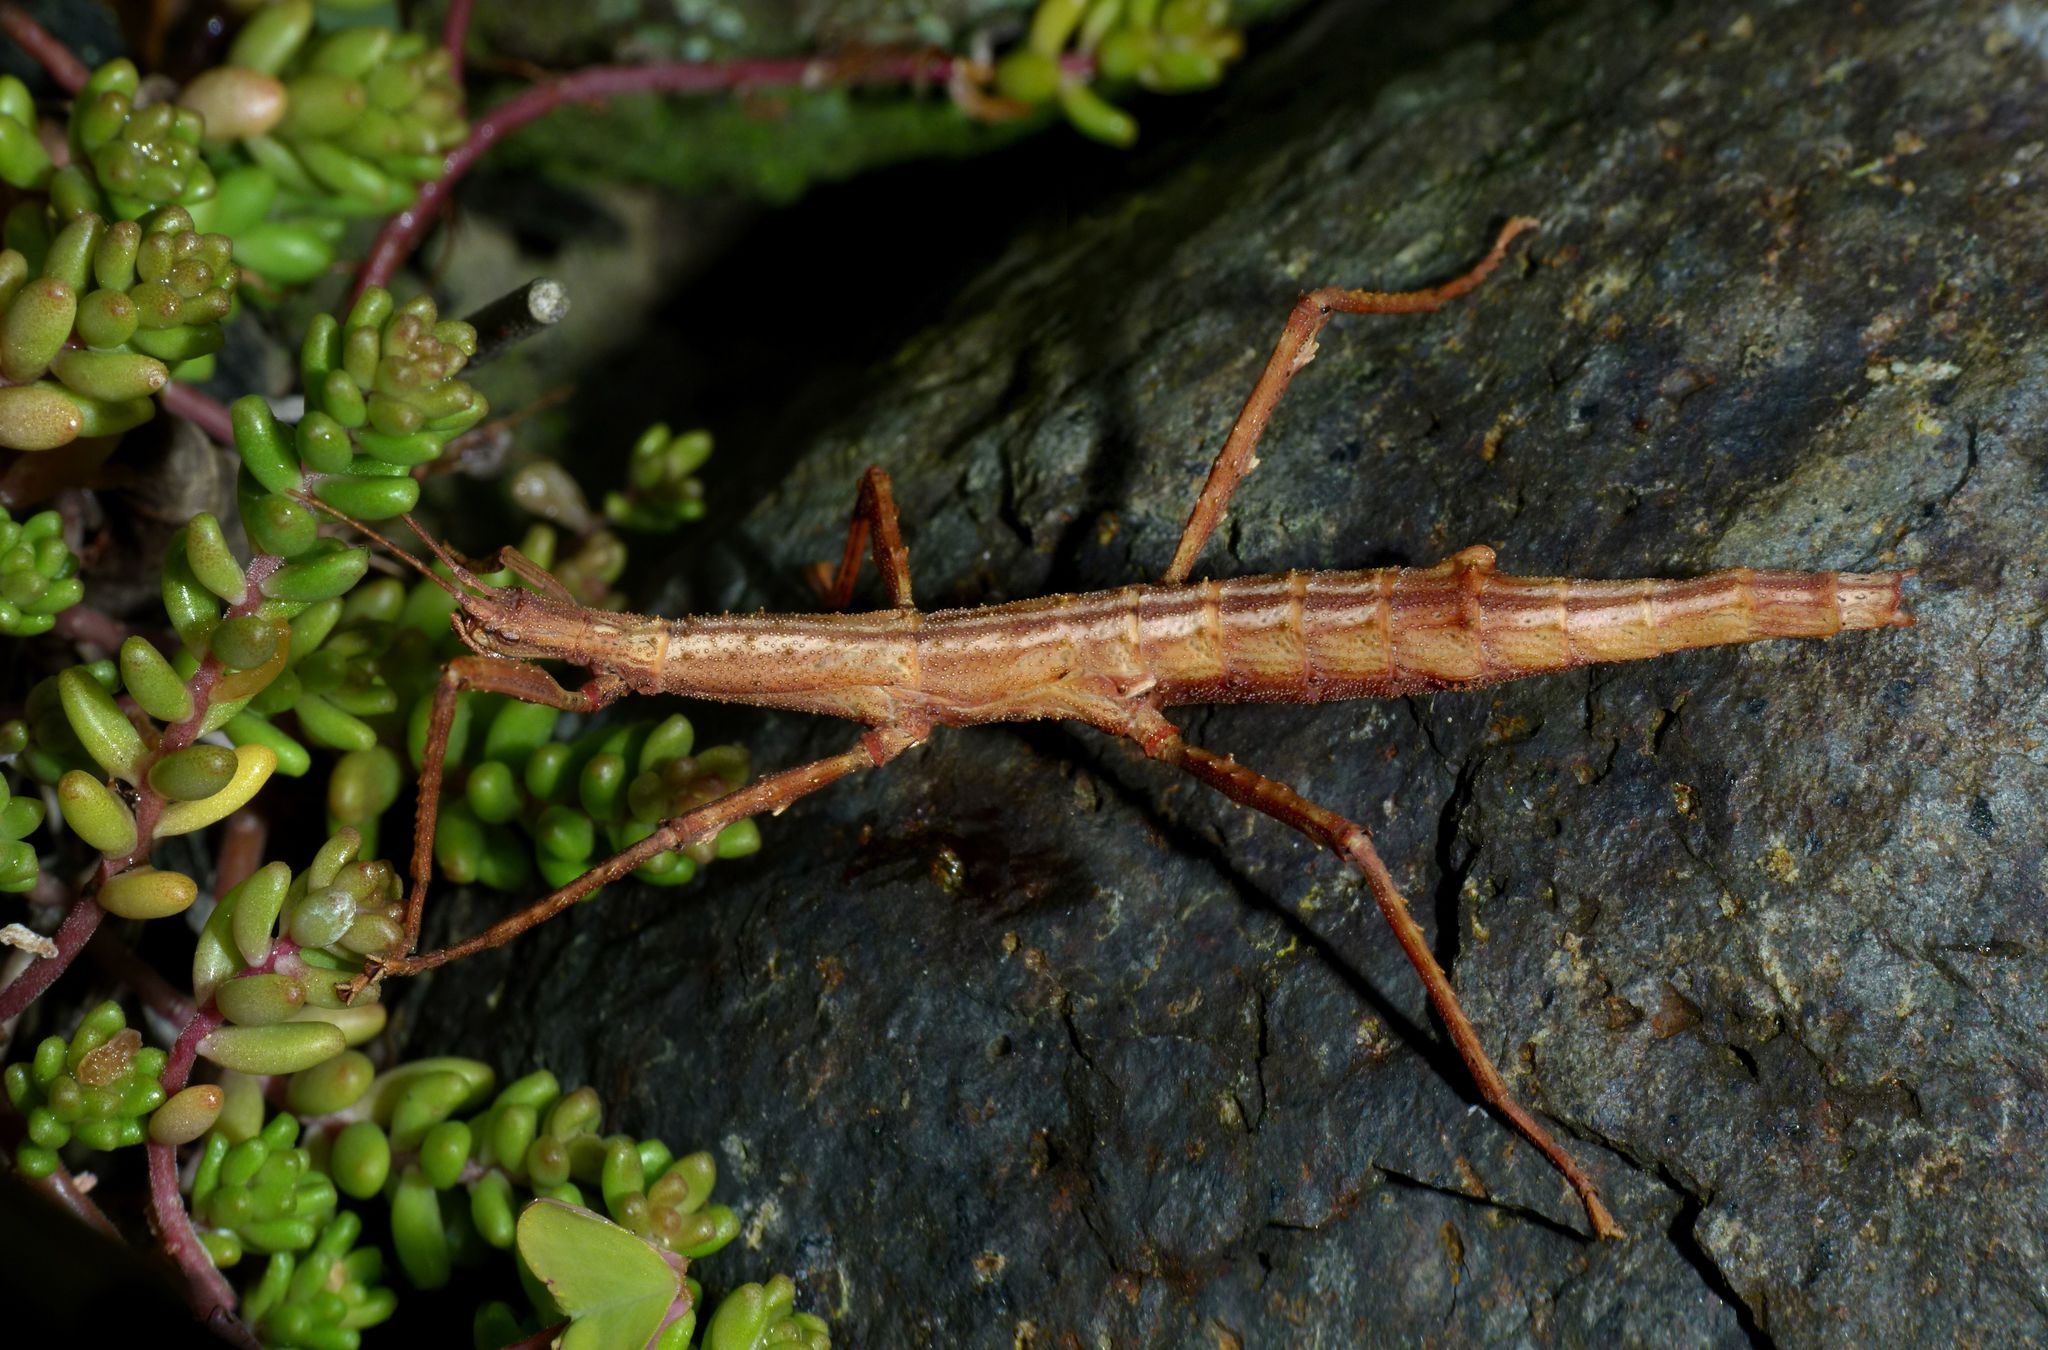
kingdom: Animalia
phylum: Arthropoda
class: Insecta
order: Phasmida
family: Phasmatidae
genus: Niveaphasma
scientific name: Niveaphasma annulatum
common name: Hutton's stick insect
